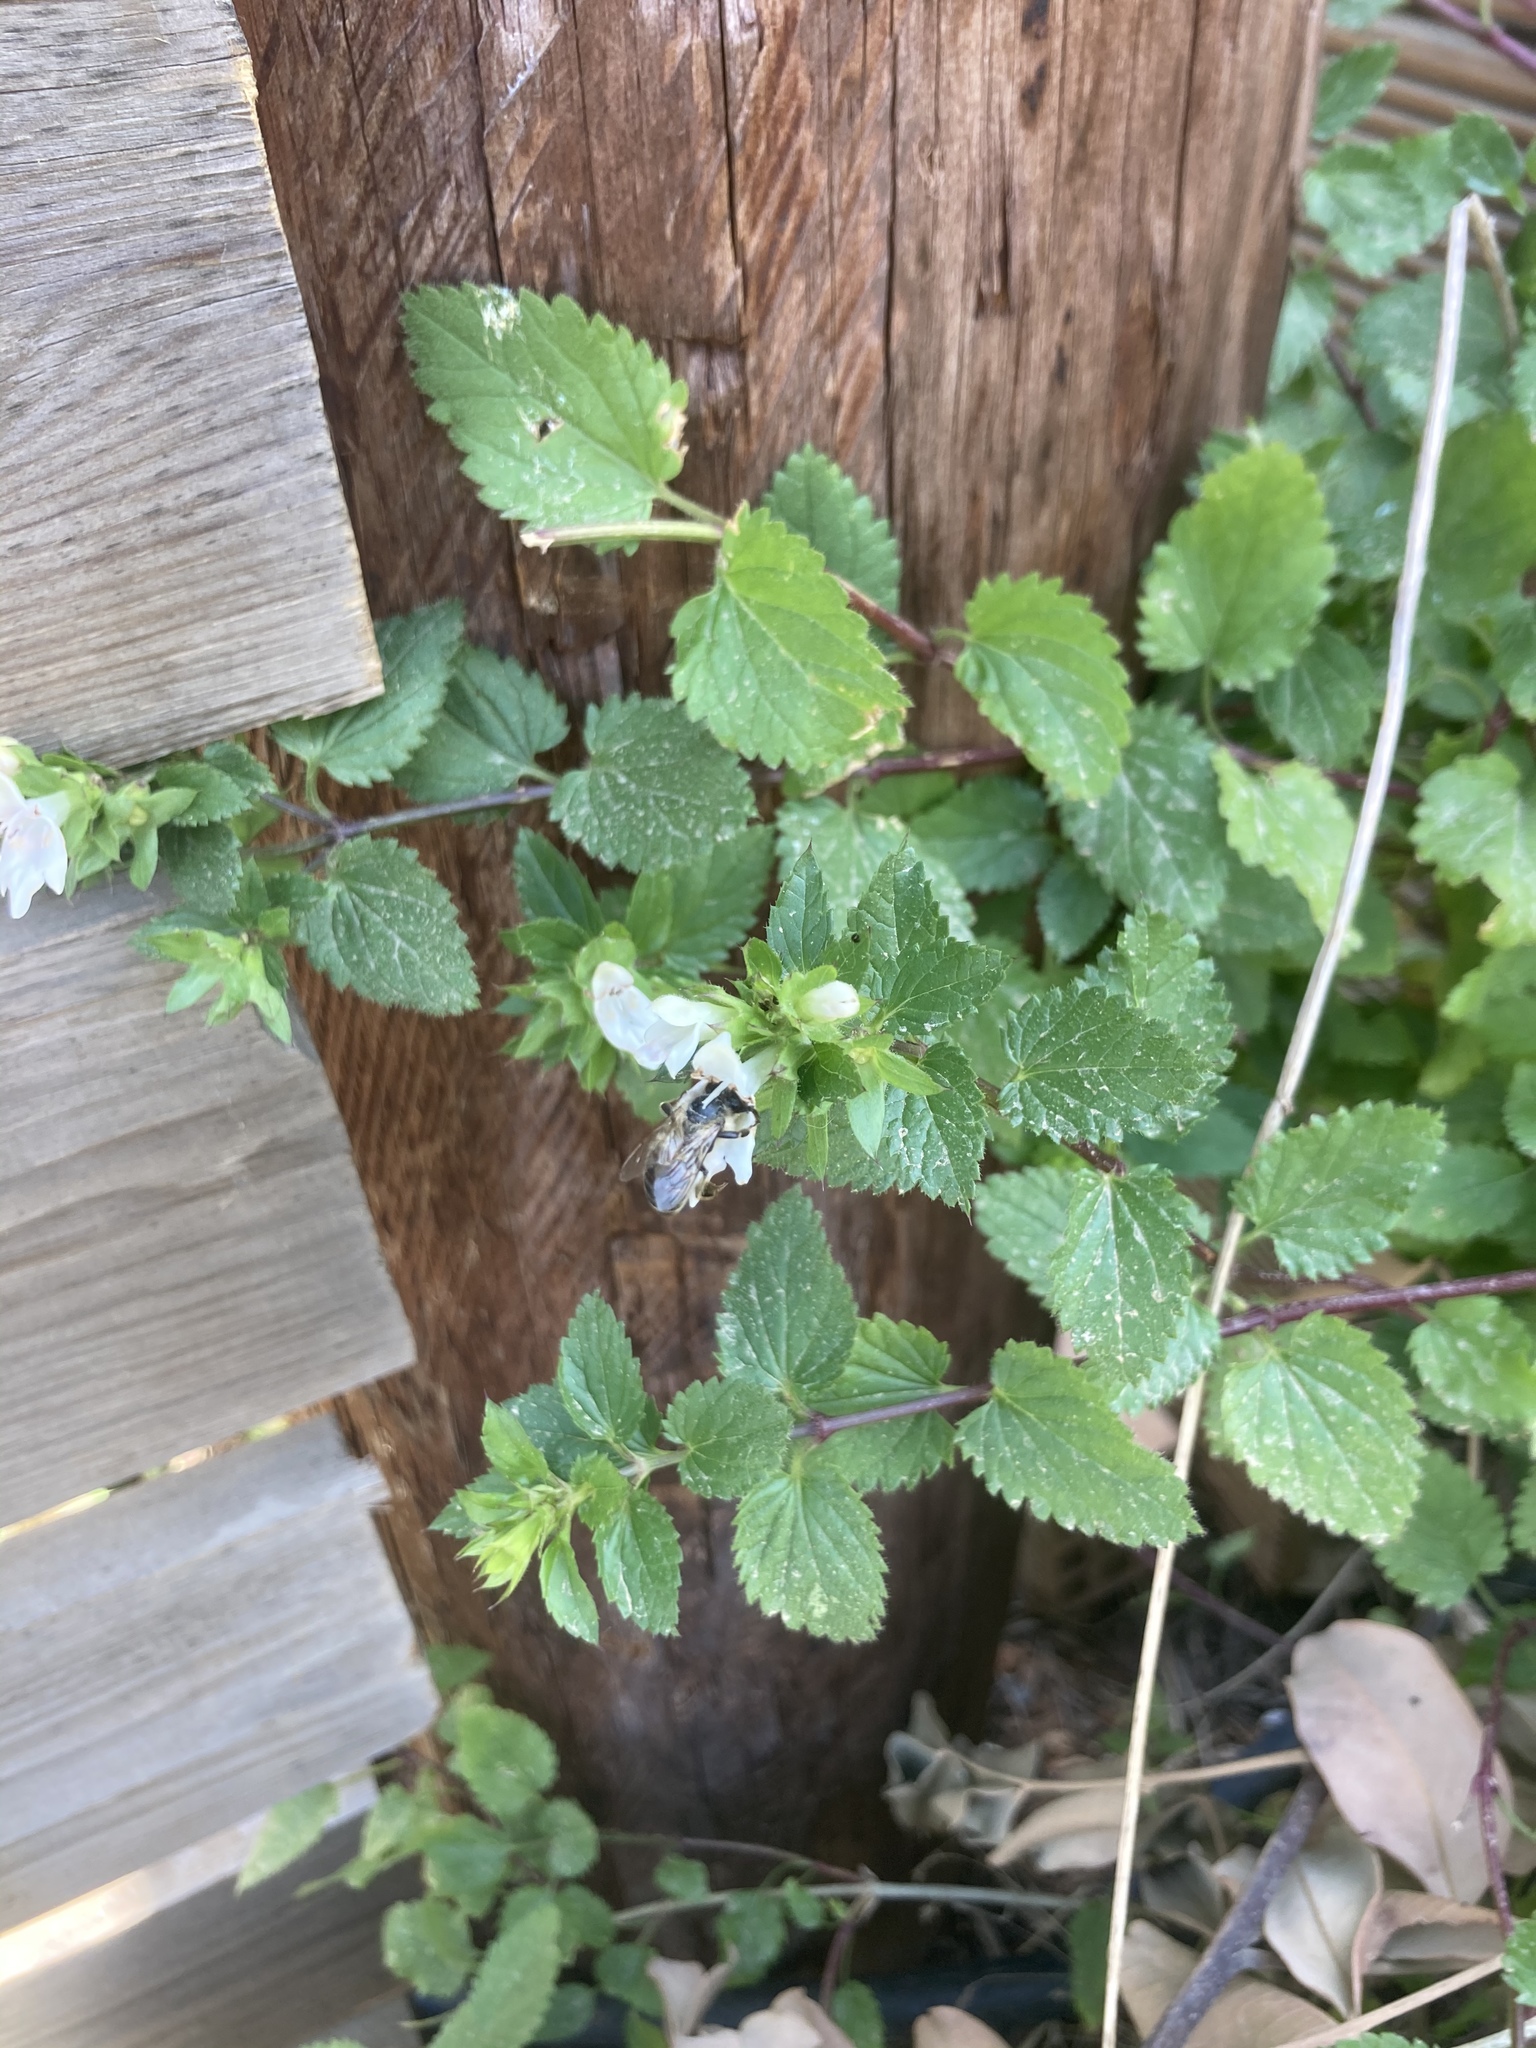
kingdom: Plantae
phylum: Tracheophyta
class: Magnoliopsida
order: Lamiales
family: Lamiaceae
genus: Prasium
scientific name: Prasium majus
